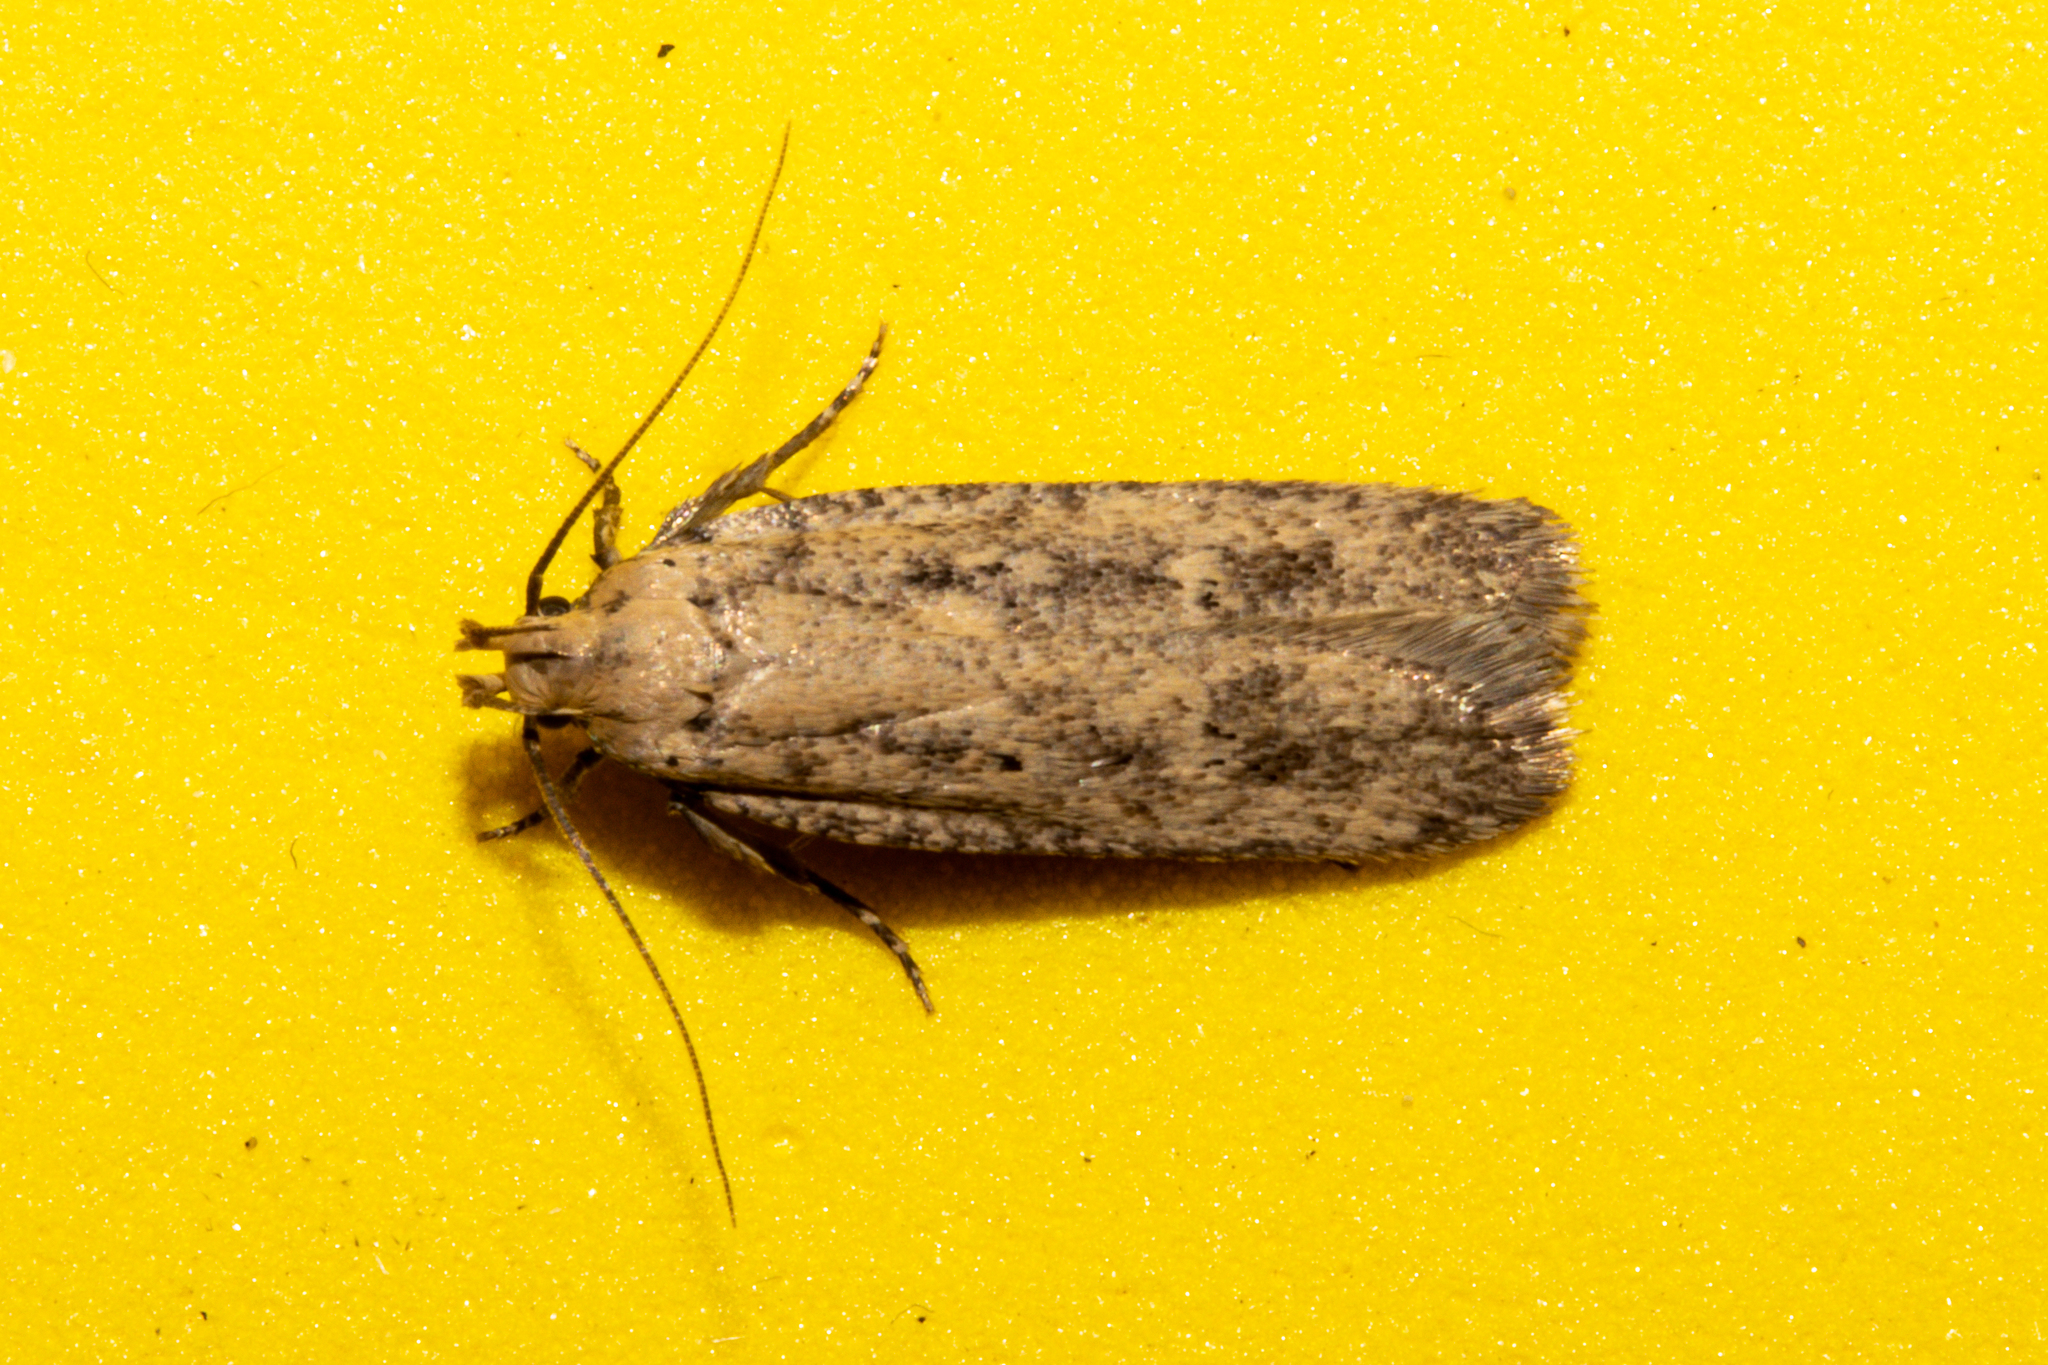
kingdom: Animalia
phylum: Arthropoda
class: Insecta
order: Lepidoptera
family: Gelechiidae
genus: Platyedra
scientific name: Platyedra subcinerea
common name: Moth
